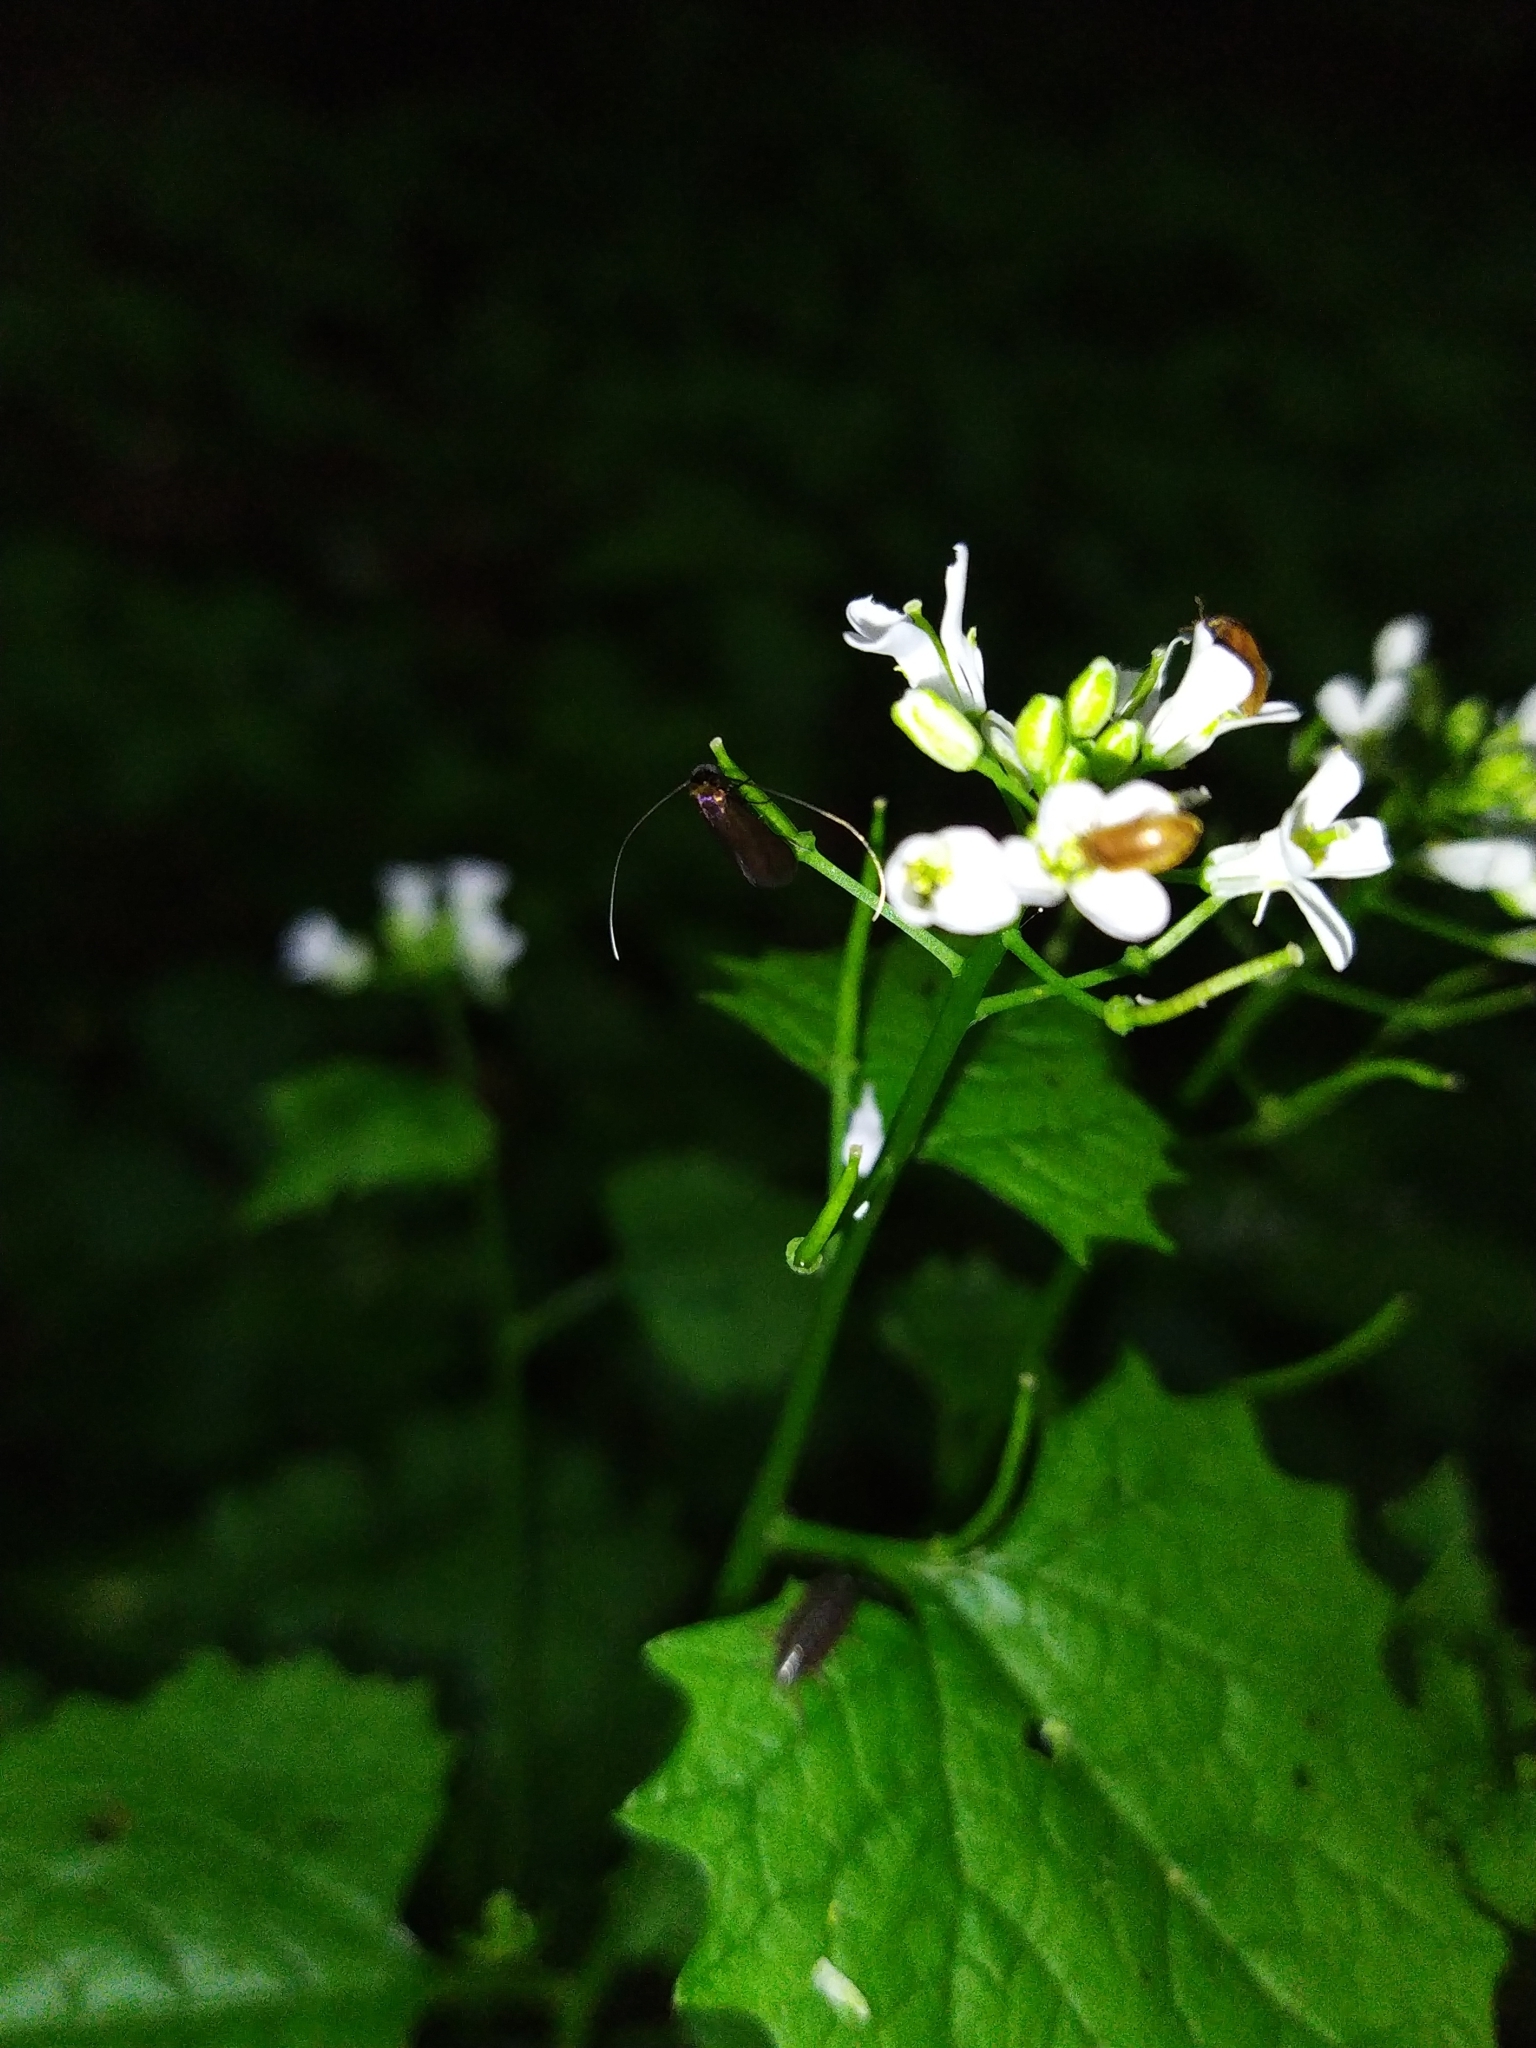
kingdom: Animalia
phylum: Arthropoda
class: Insecta
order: Lepidoptera
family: Adelidae
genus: Cauchas
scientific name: Cauchas rufimitrella
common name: Meadow long-horn
